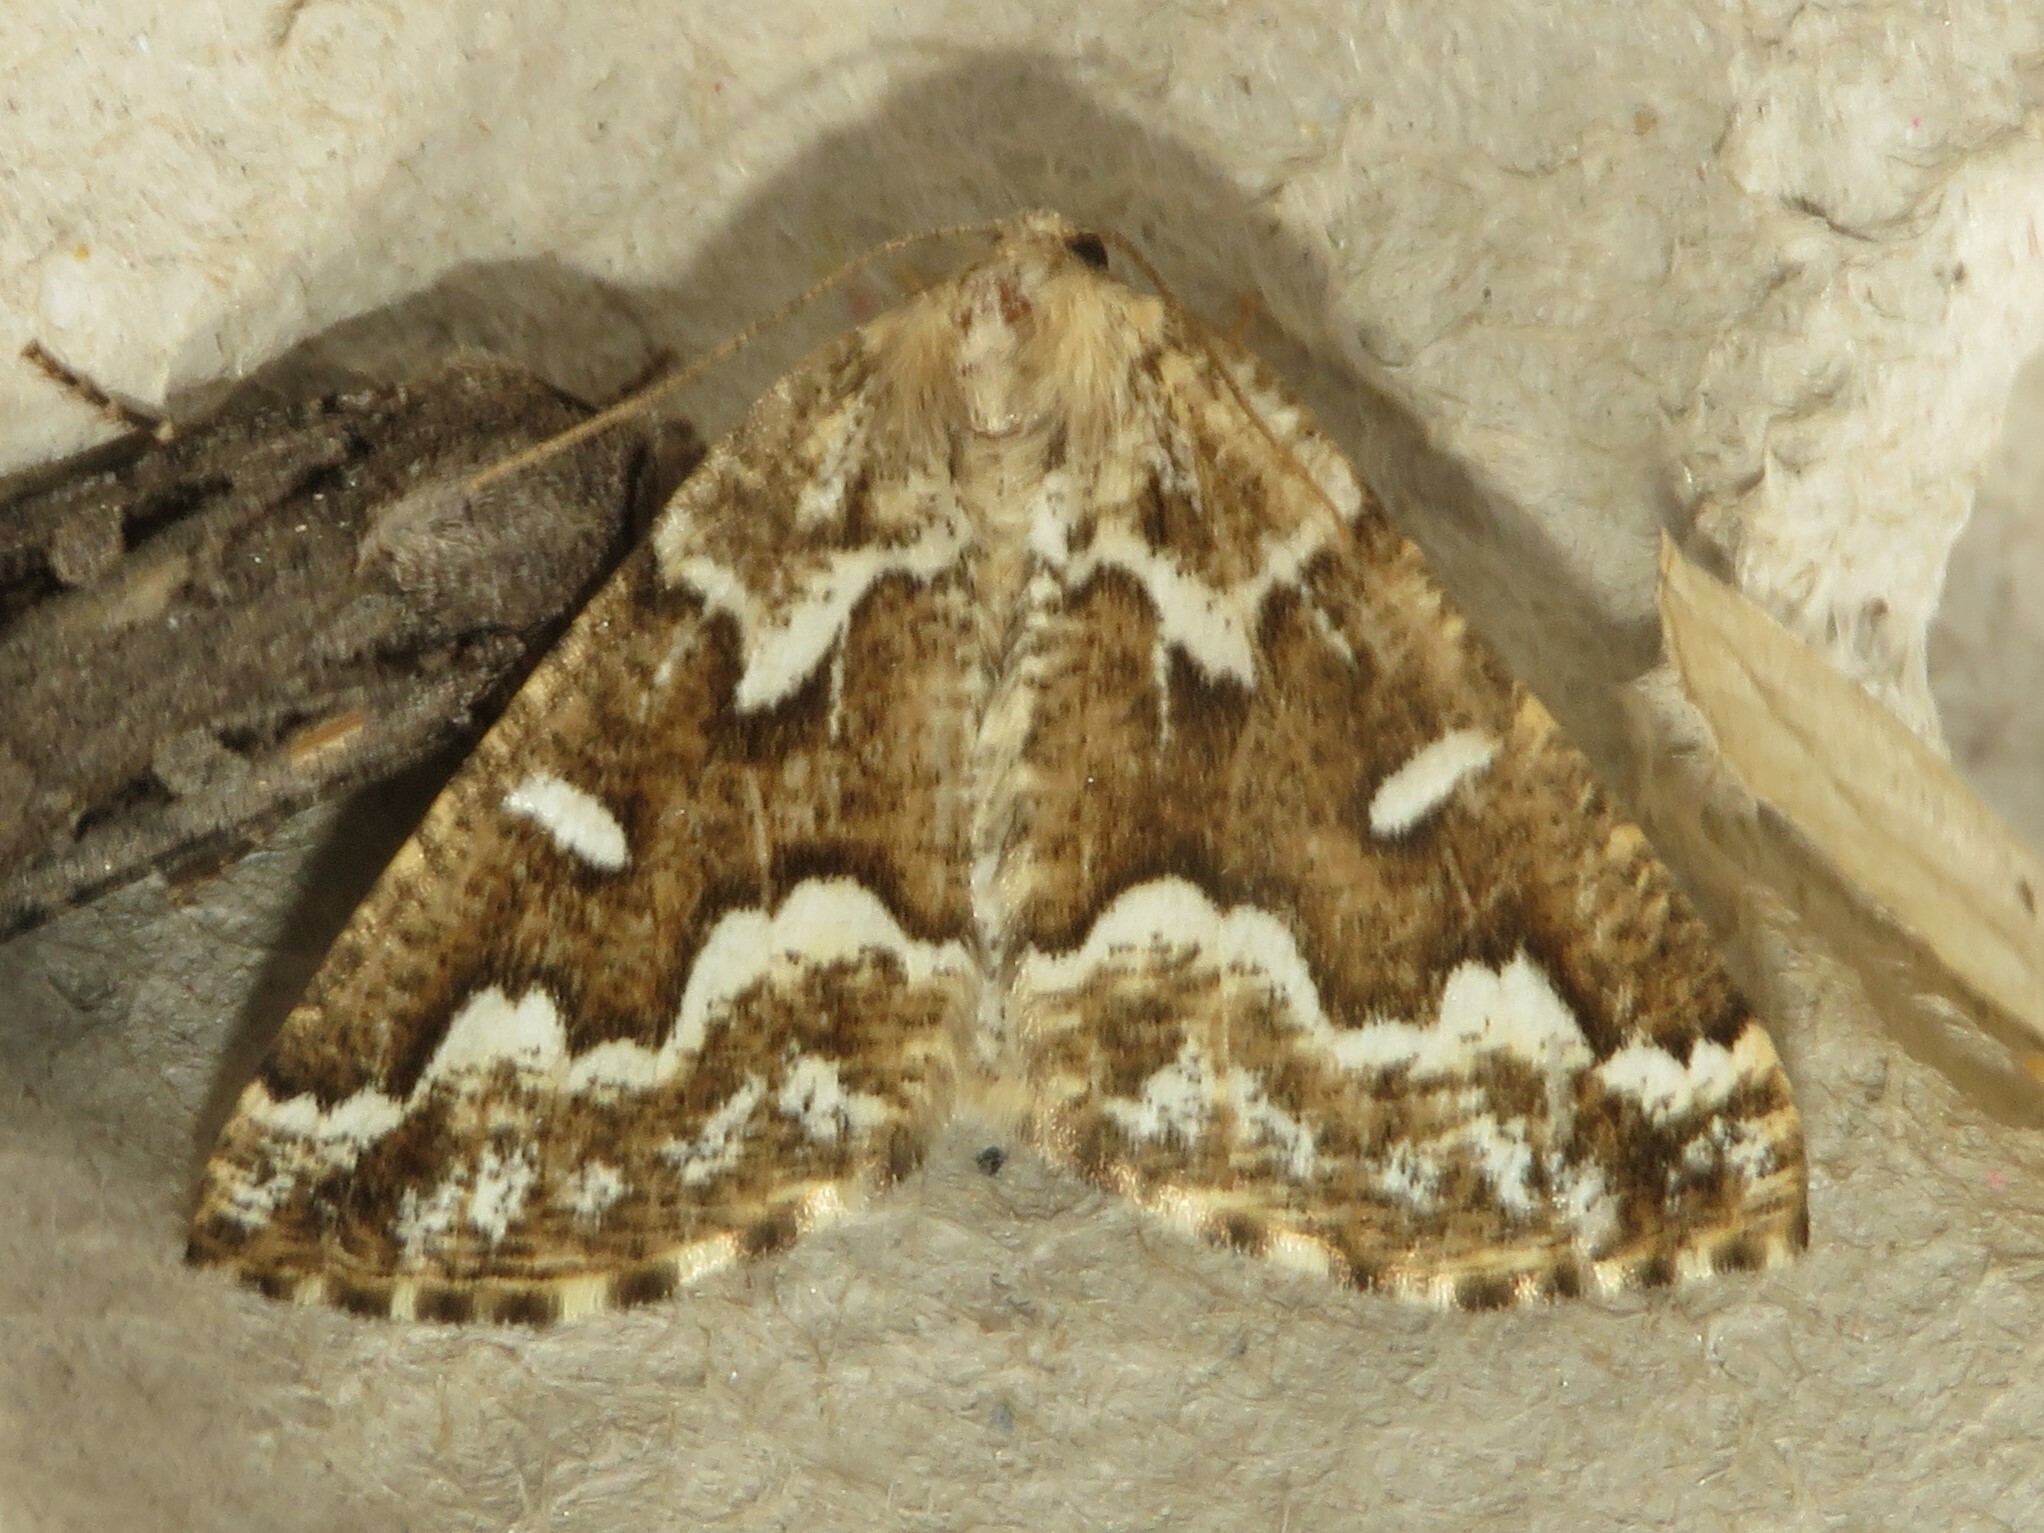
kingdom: Animalia
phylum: Arthropoda
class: Insecta
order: Lepidoptera
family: Geometridae
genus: Caripeta
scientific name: Caripeta divisata
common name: Gray spruce looper
